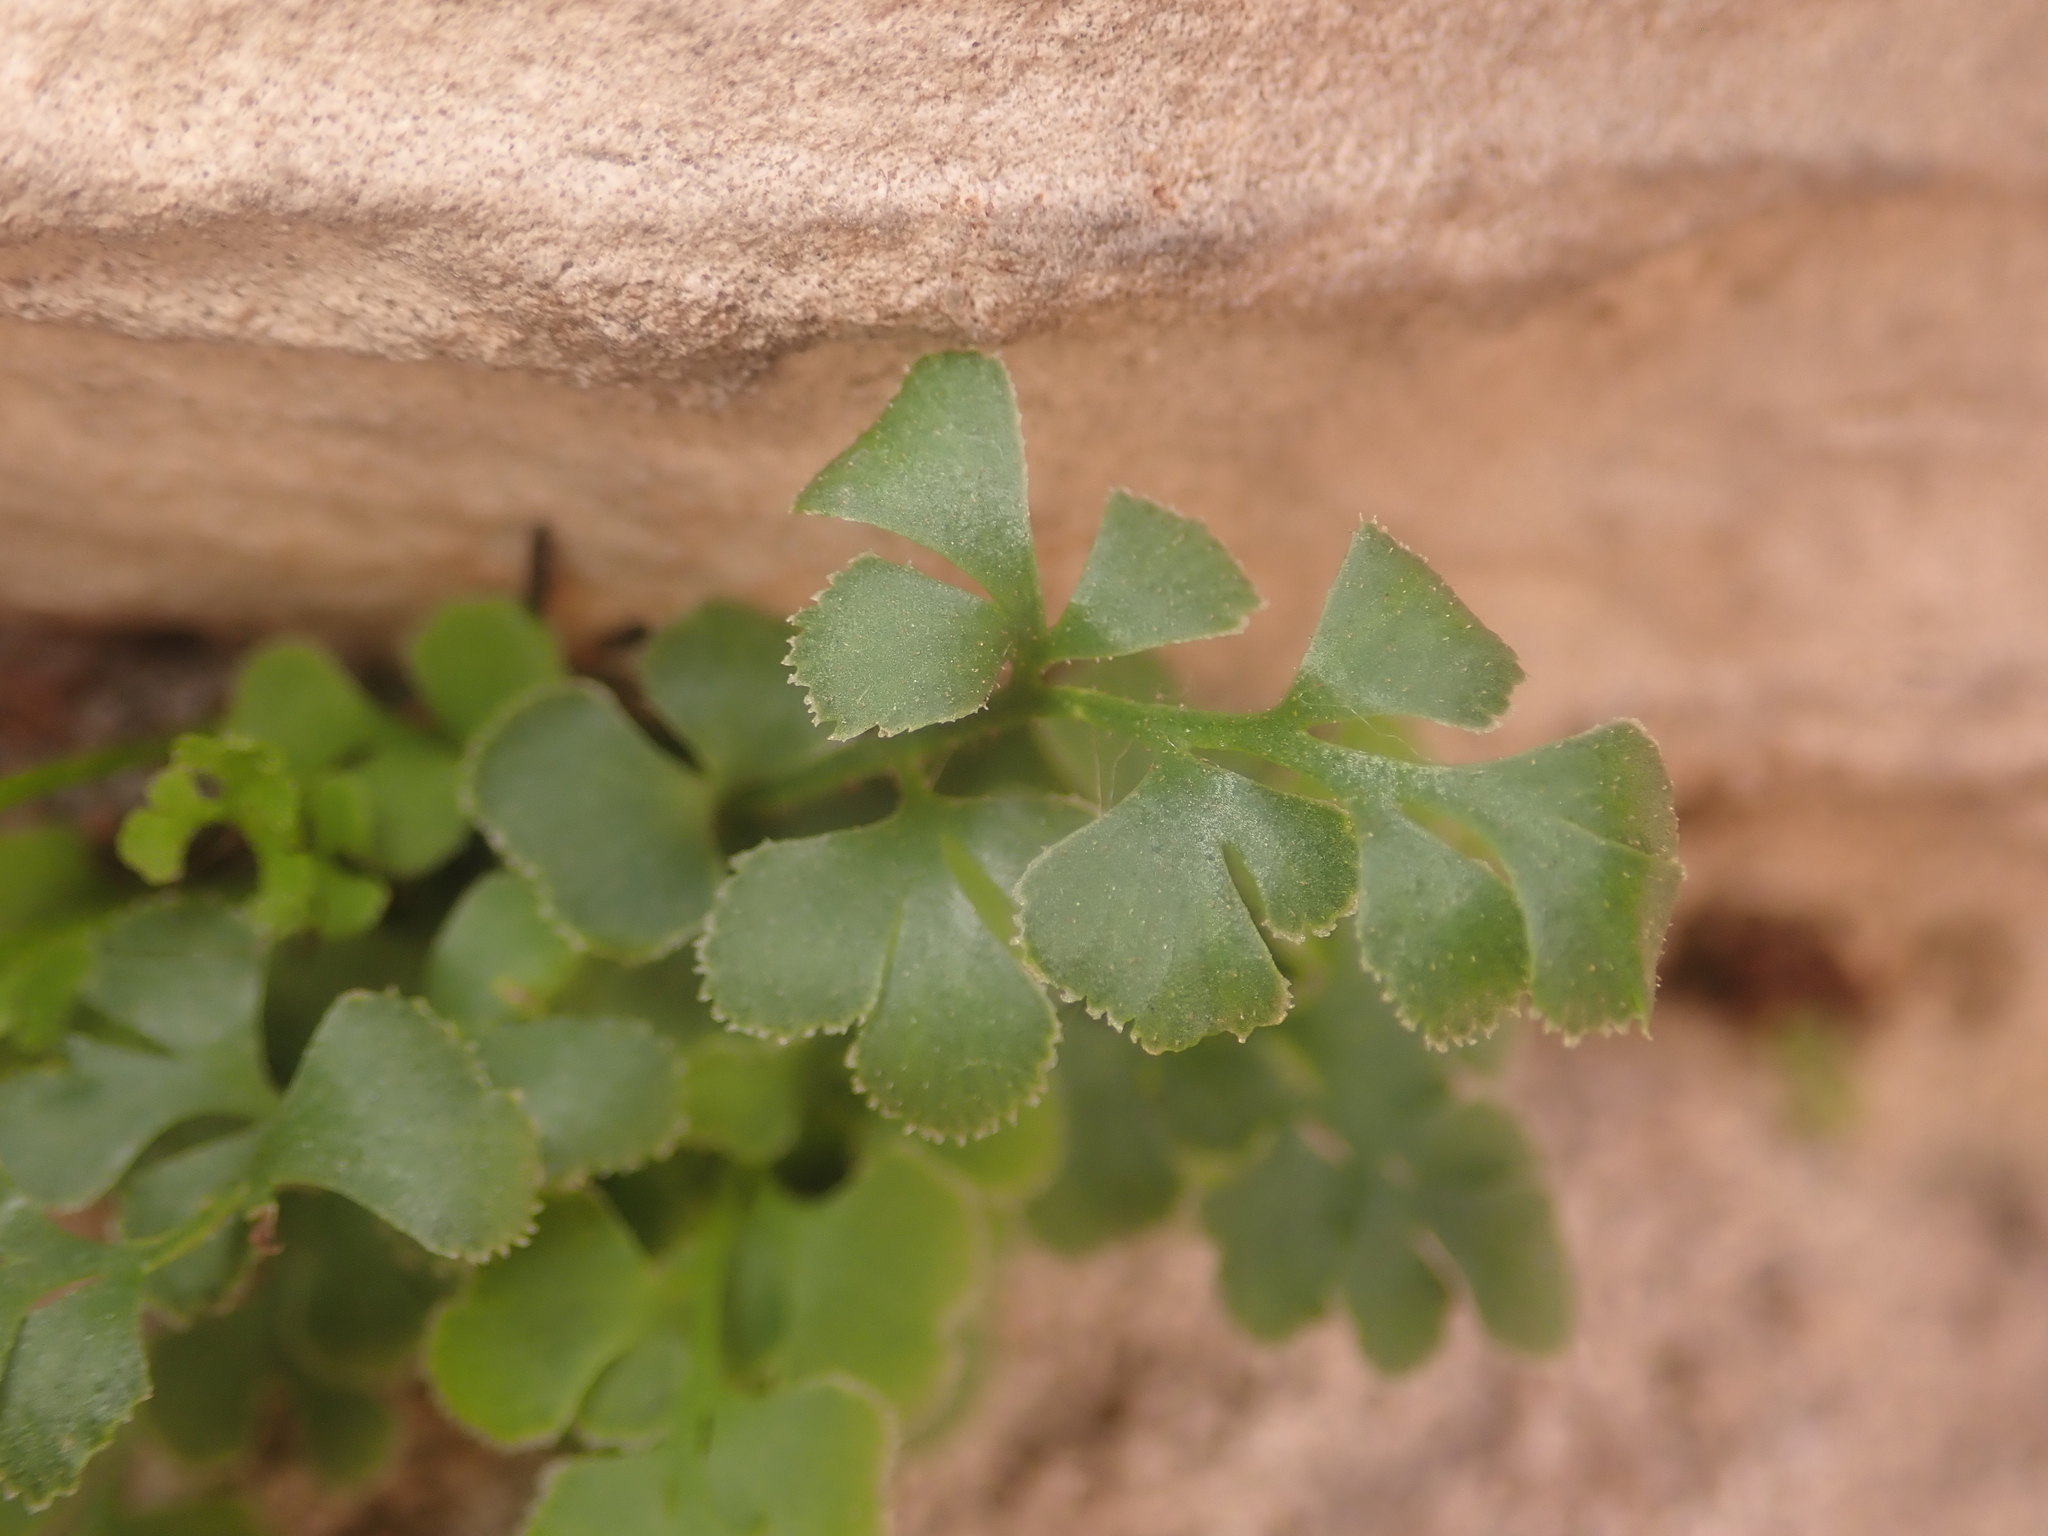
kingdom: Plantae
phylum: Tracheophyta
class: Polypodiopsida
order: Polypodiales
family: Aspleniaceae
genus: Asplenium
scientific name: Asplenium ruta-muraria
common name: Wall-rue
